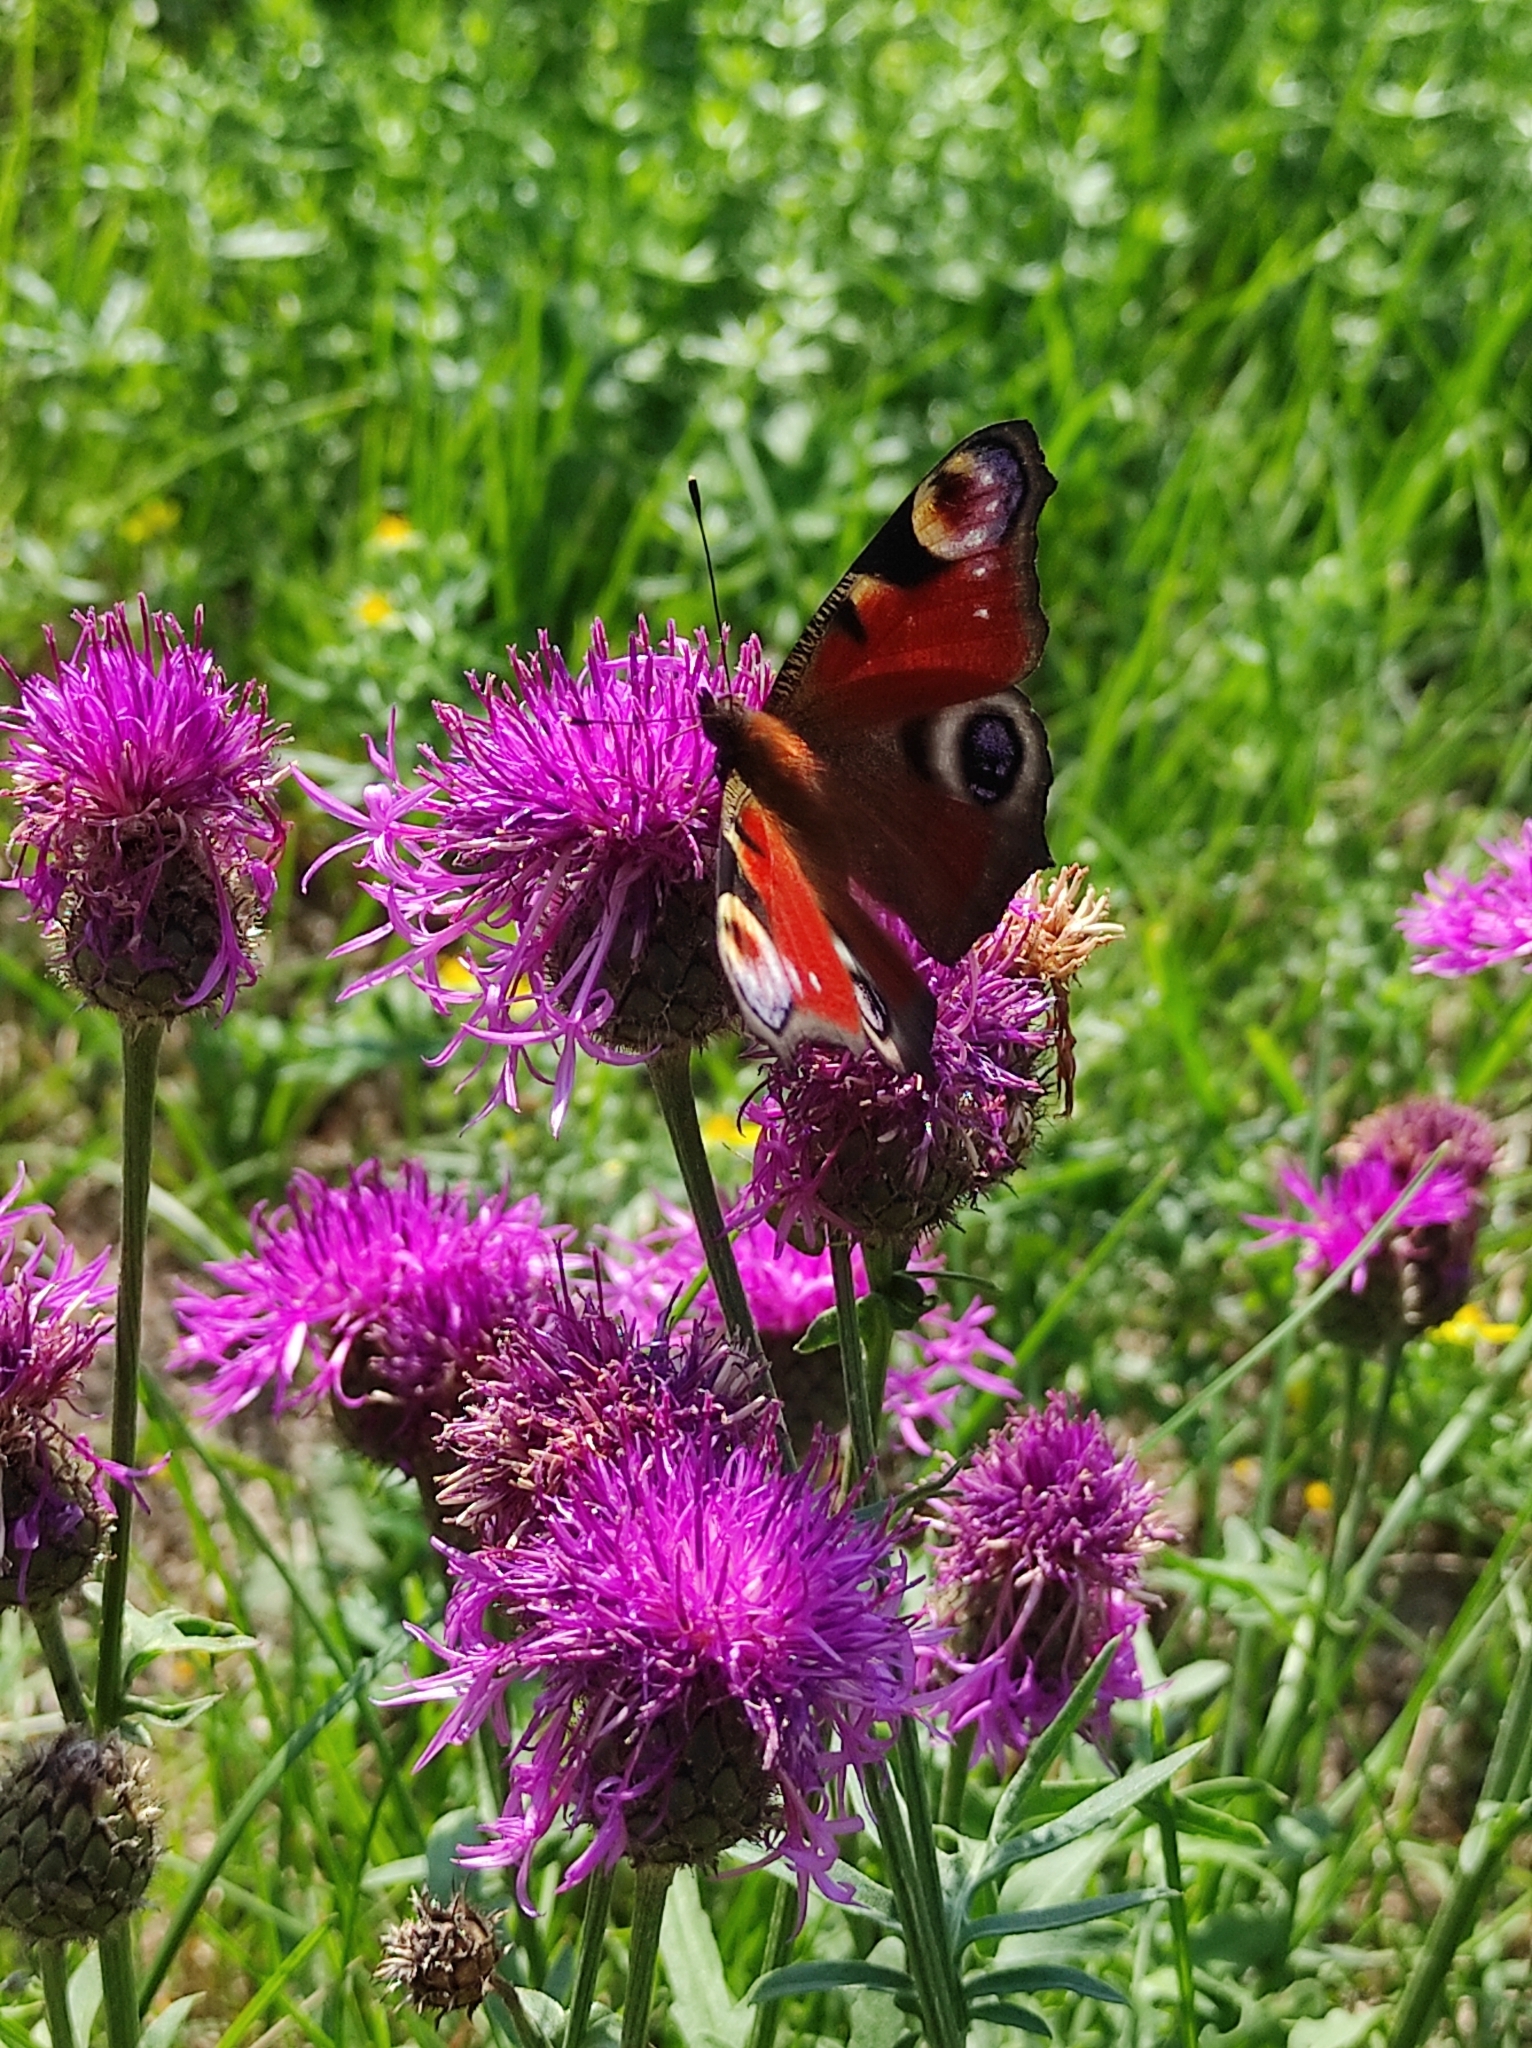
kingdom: Plantae
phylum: Tracheophyta
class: Magnoliopsida
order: Asterales
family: Asteraceae
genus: Centaurea
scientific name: Centaurea scabiosa
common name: Greater knapweed
